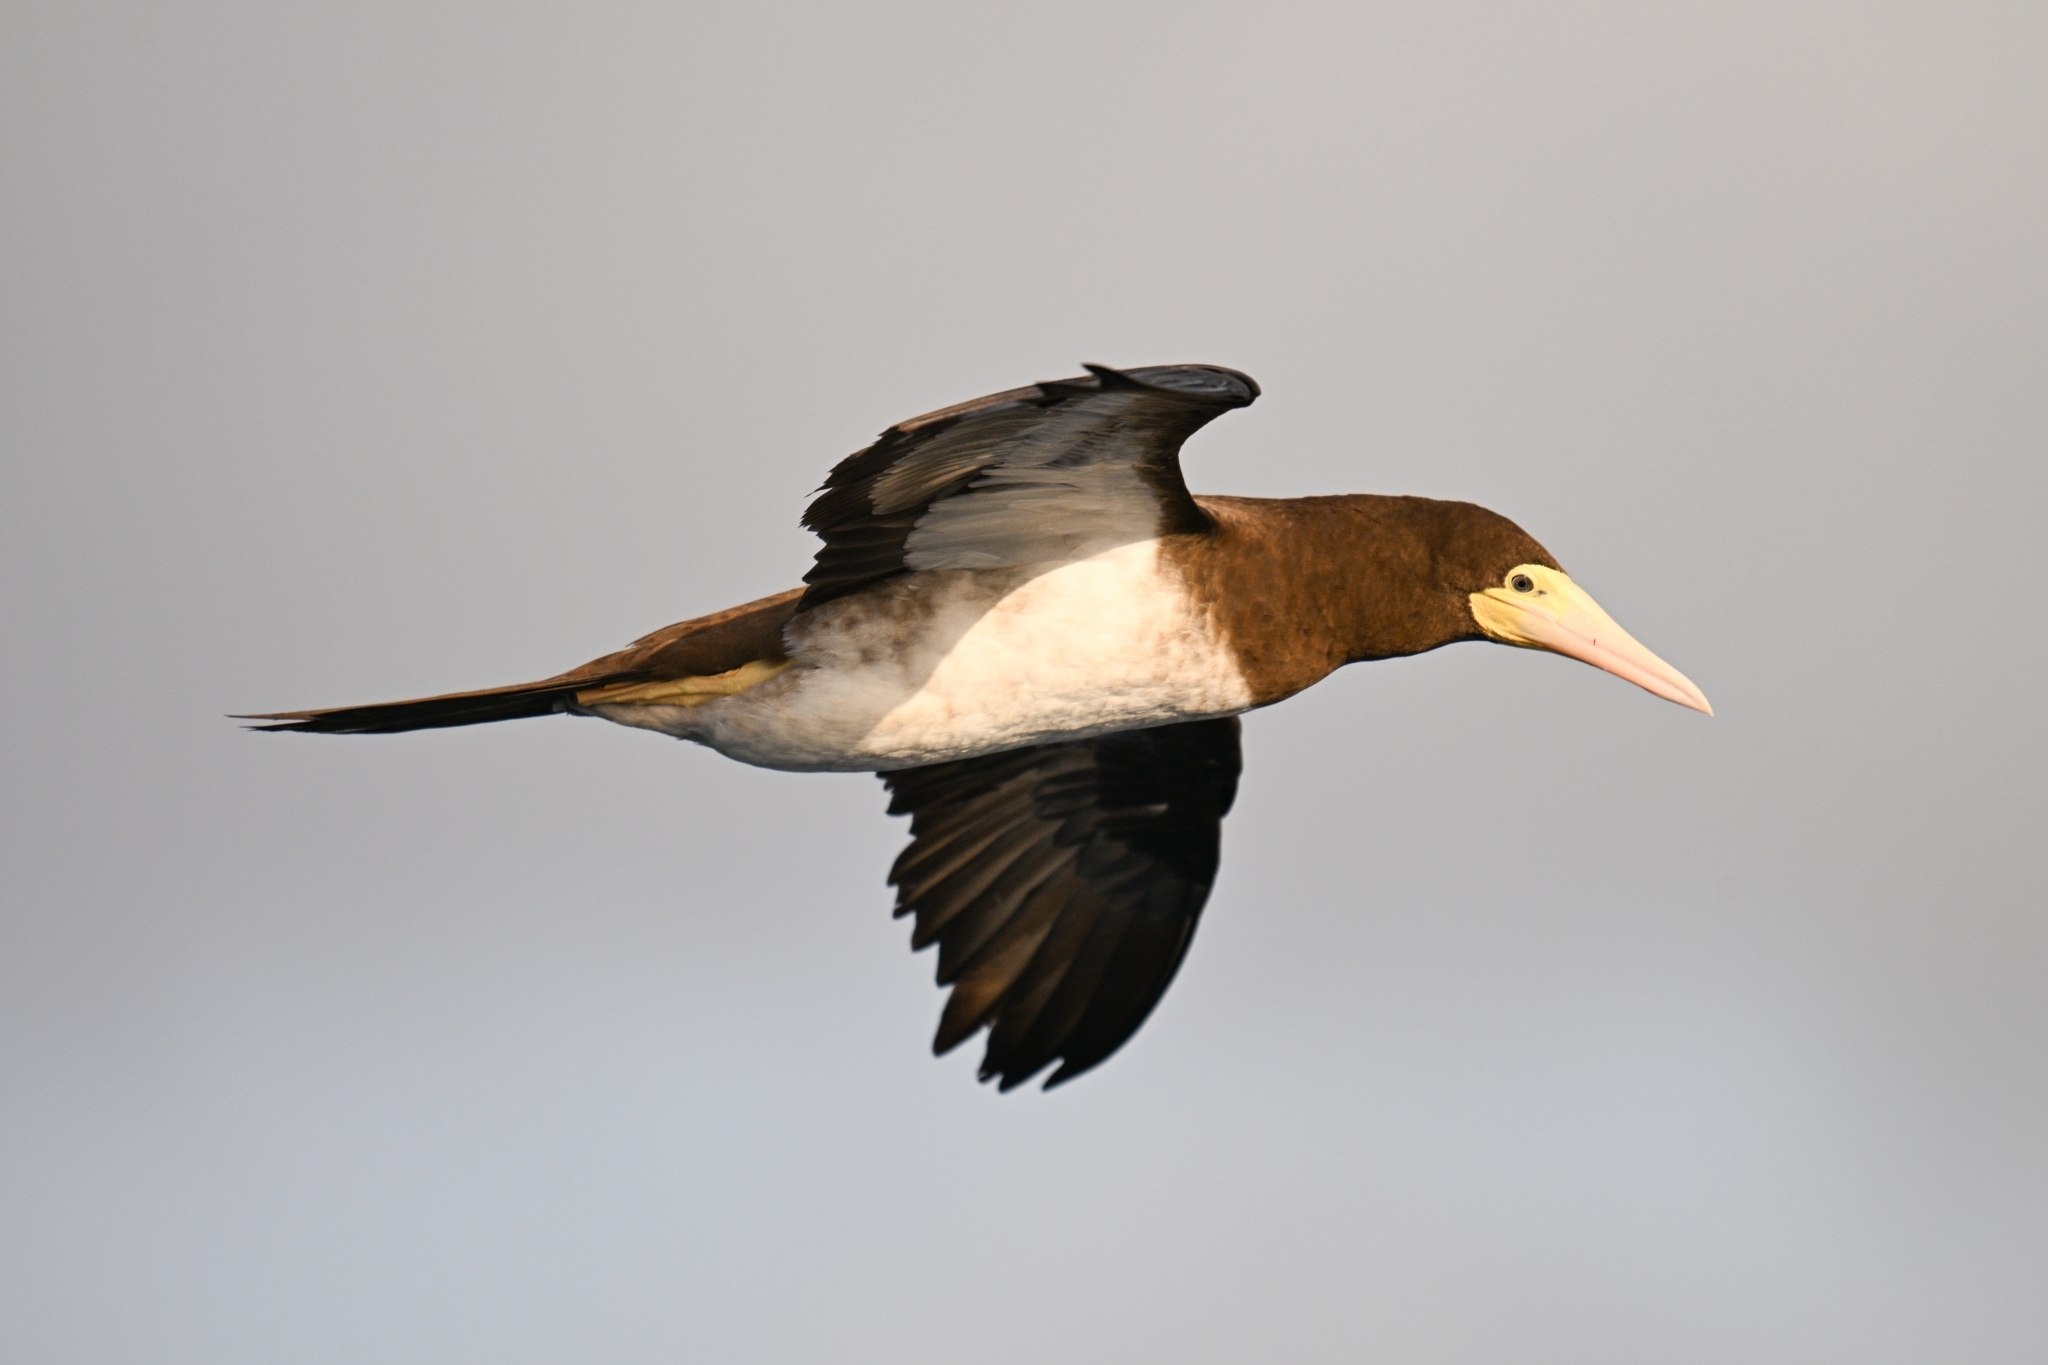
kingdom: Animalia
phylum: Chordata
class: Aves
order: Suliformes
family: Sulidae
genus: Sula
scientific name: Sula leucogaster
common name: Brown booby
